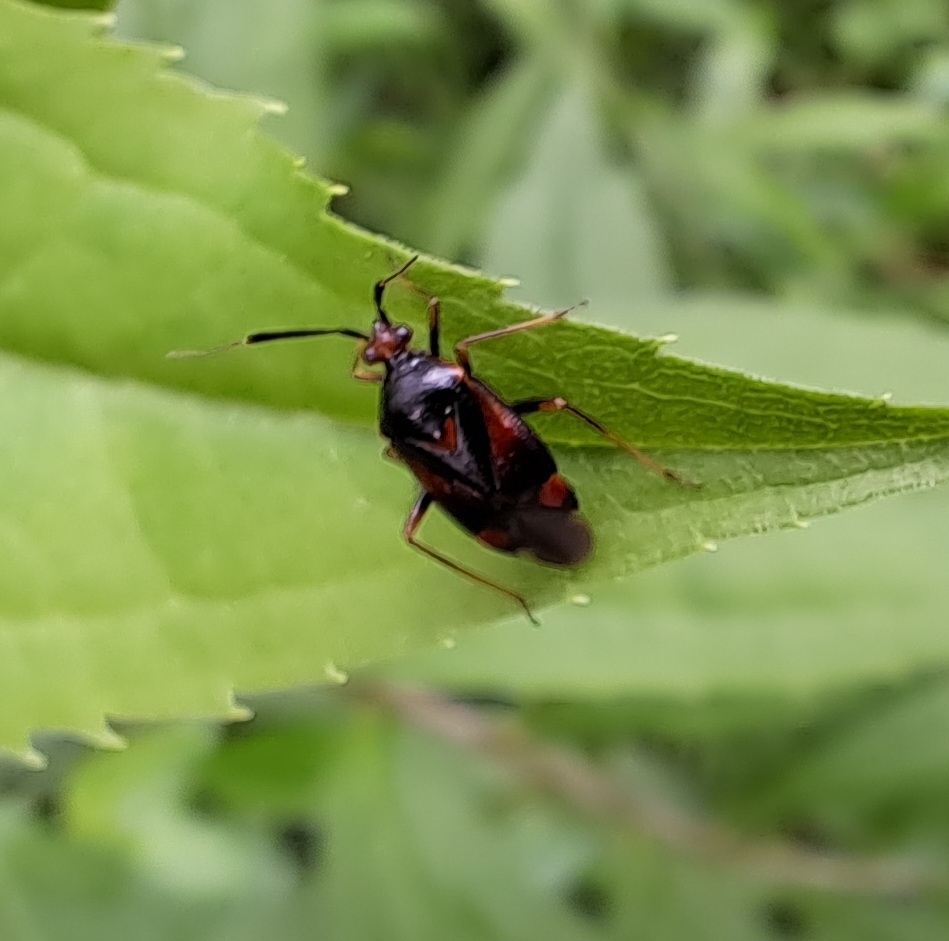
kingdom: Animalia
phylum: Arthropoda
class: Insecta
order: Hemiptera
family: Miridae
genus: Deraeocoris
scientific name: Deraeocoris ruber
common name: Plant bug
